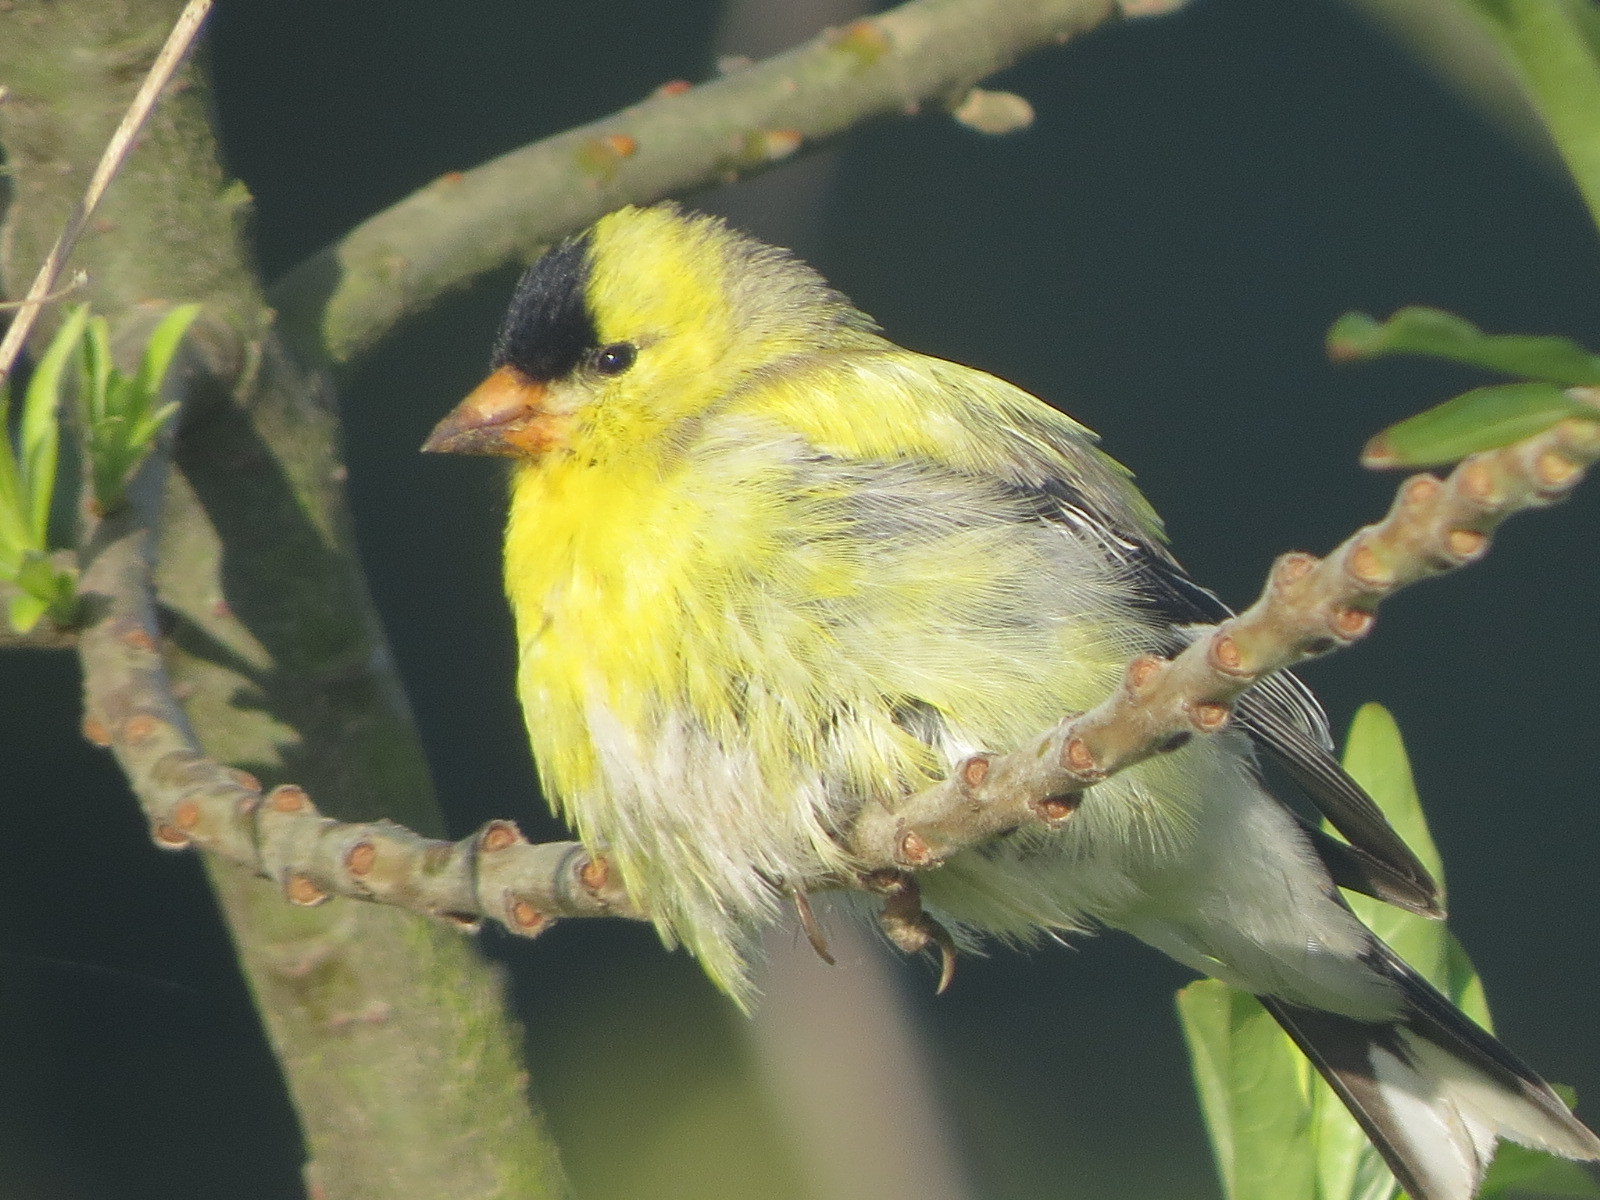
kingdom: Animalia
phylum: Chordata
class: Aves
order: Passeriformes
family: Fringillidae
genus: Spinus
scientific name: Spinus tristis
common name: American goldfinch
